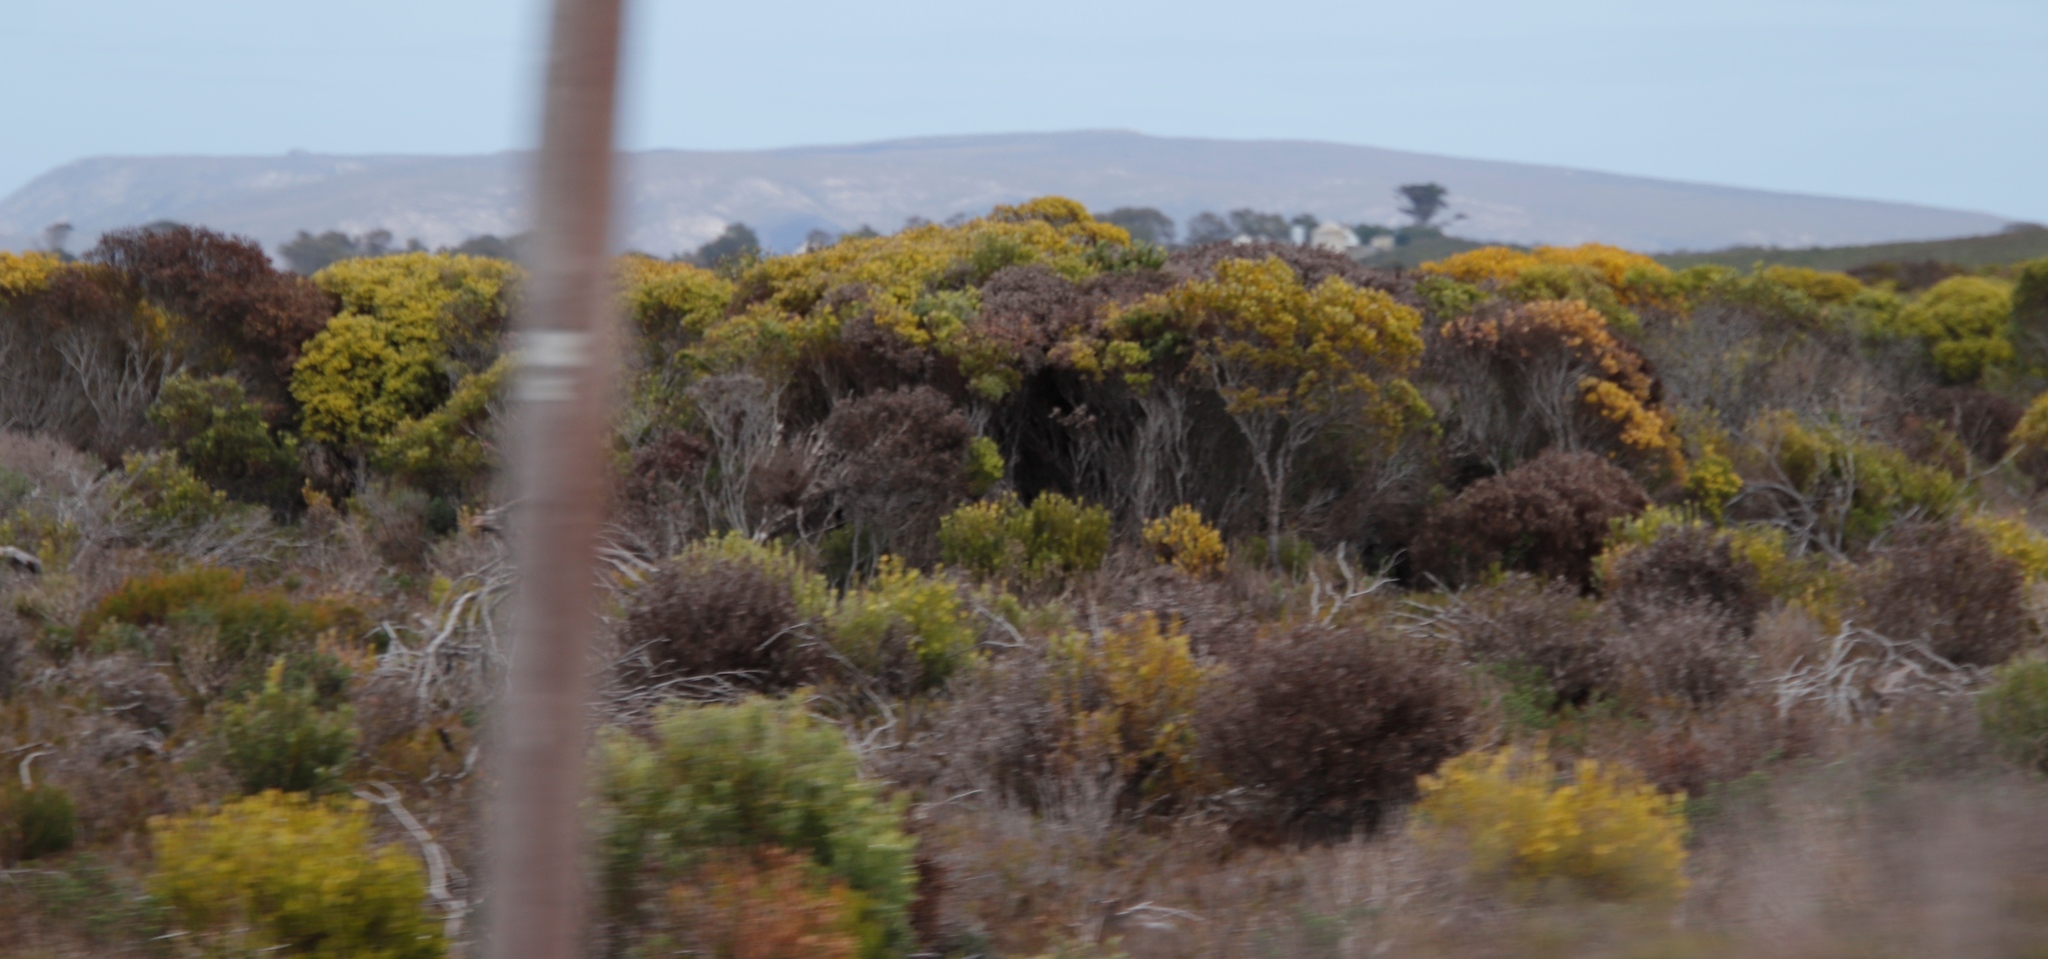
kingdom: Plantae
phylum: Tracheophyta
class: Magnoliopsida
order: Proteales
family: Proteaceae
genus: Leucadendron
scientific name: Leucadendron linifolium
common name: Line-leaf conebush
